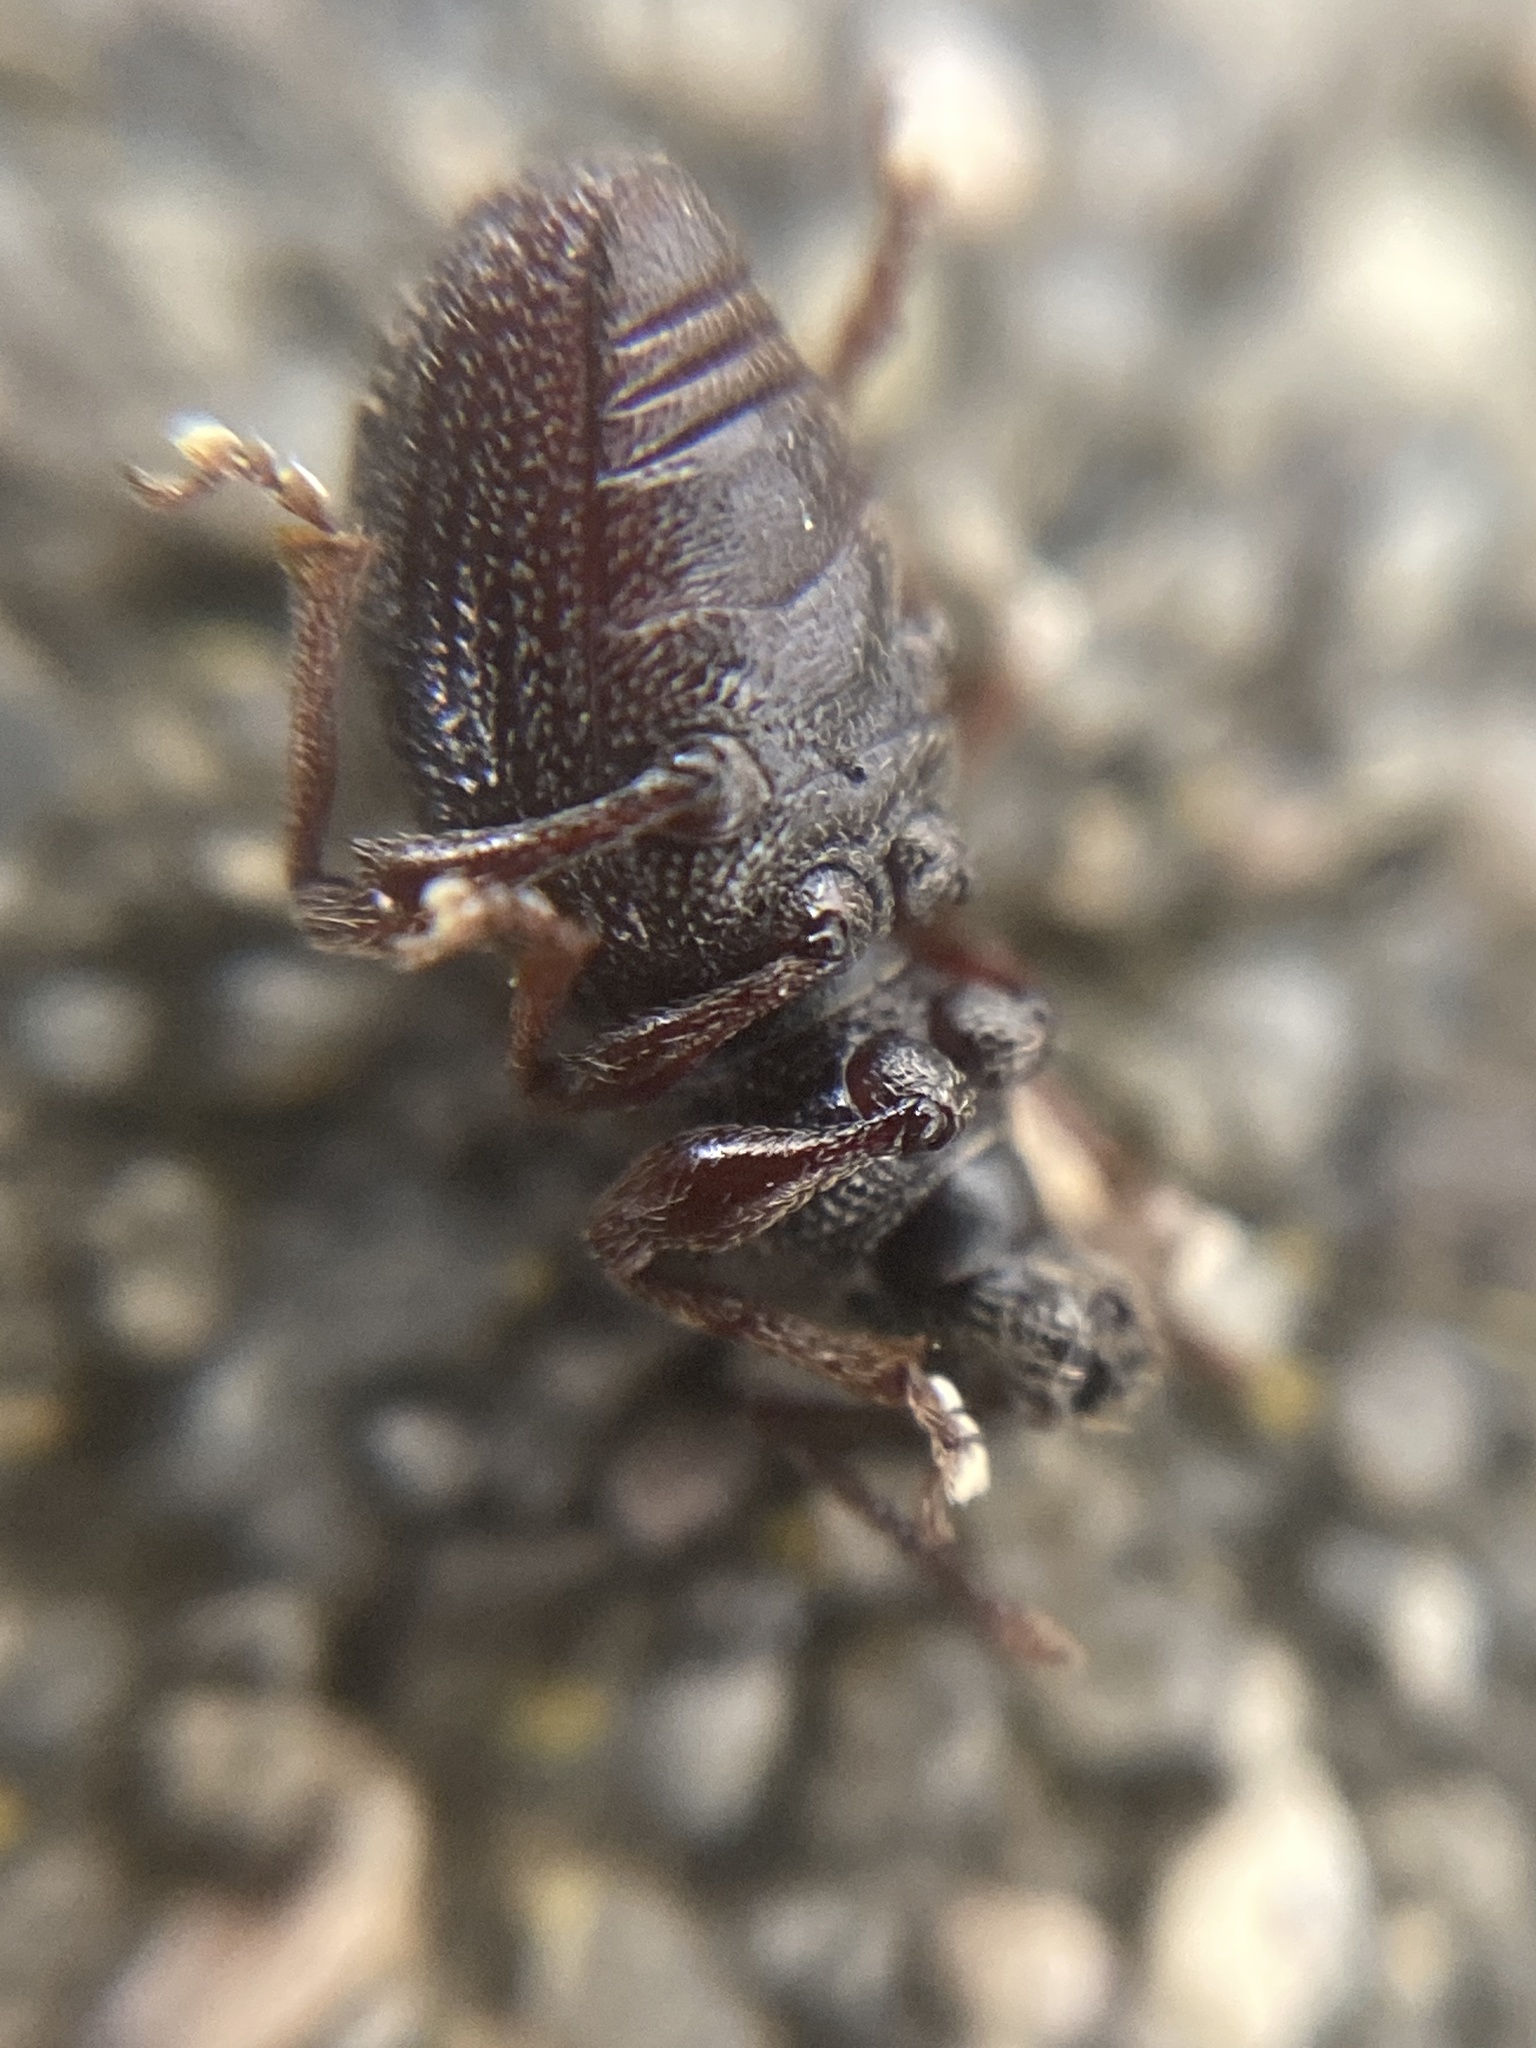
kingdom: Animalia
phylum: Arthropoda
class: Insecta
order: Coleoptera
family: Curculionidae
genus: Otiorhynchus
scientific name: Otiorhynchus ovatus
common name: Strawberry root weevil
